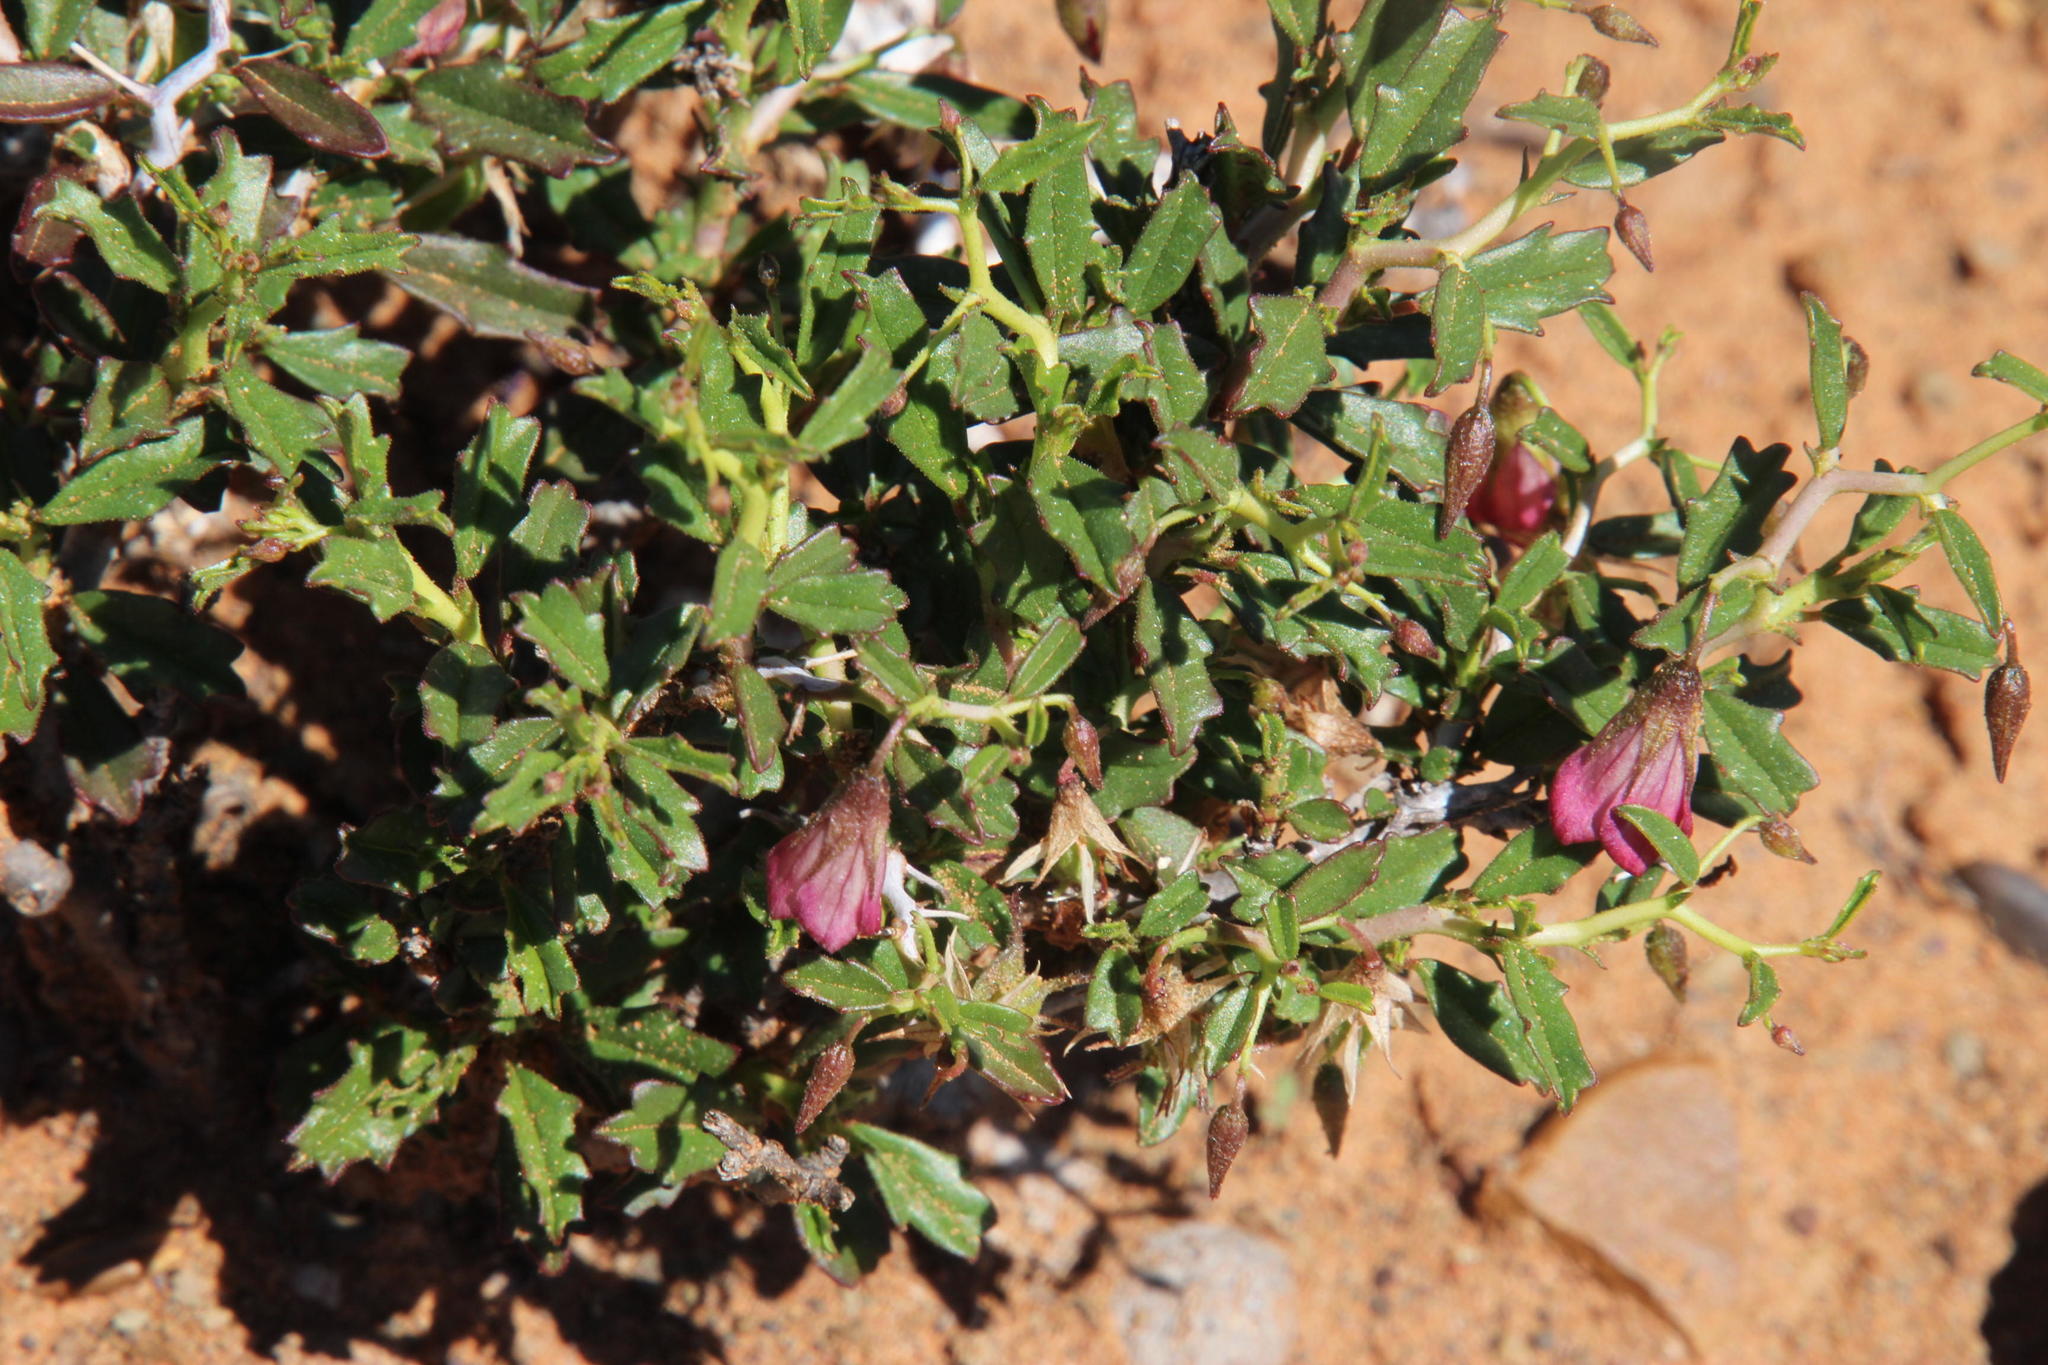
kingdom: Plantae
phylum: Tracheophyta
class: Magnoliopsida
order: Malvales
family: Malvaceae
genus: Hermannia
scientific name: Hermannia spinosa
